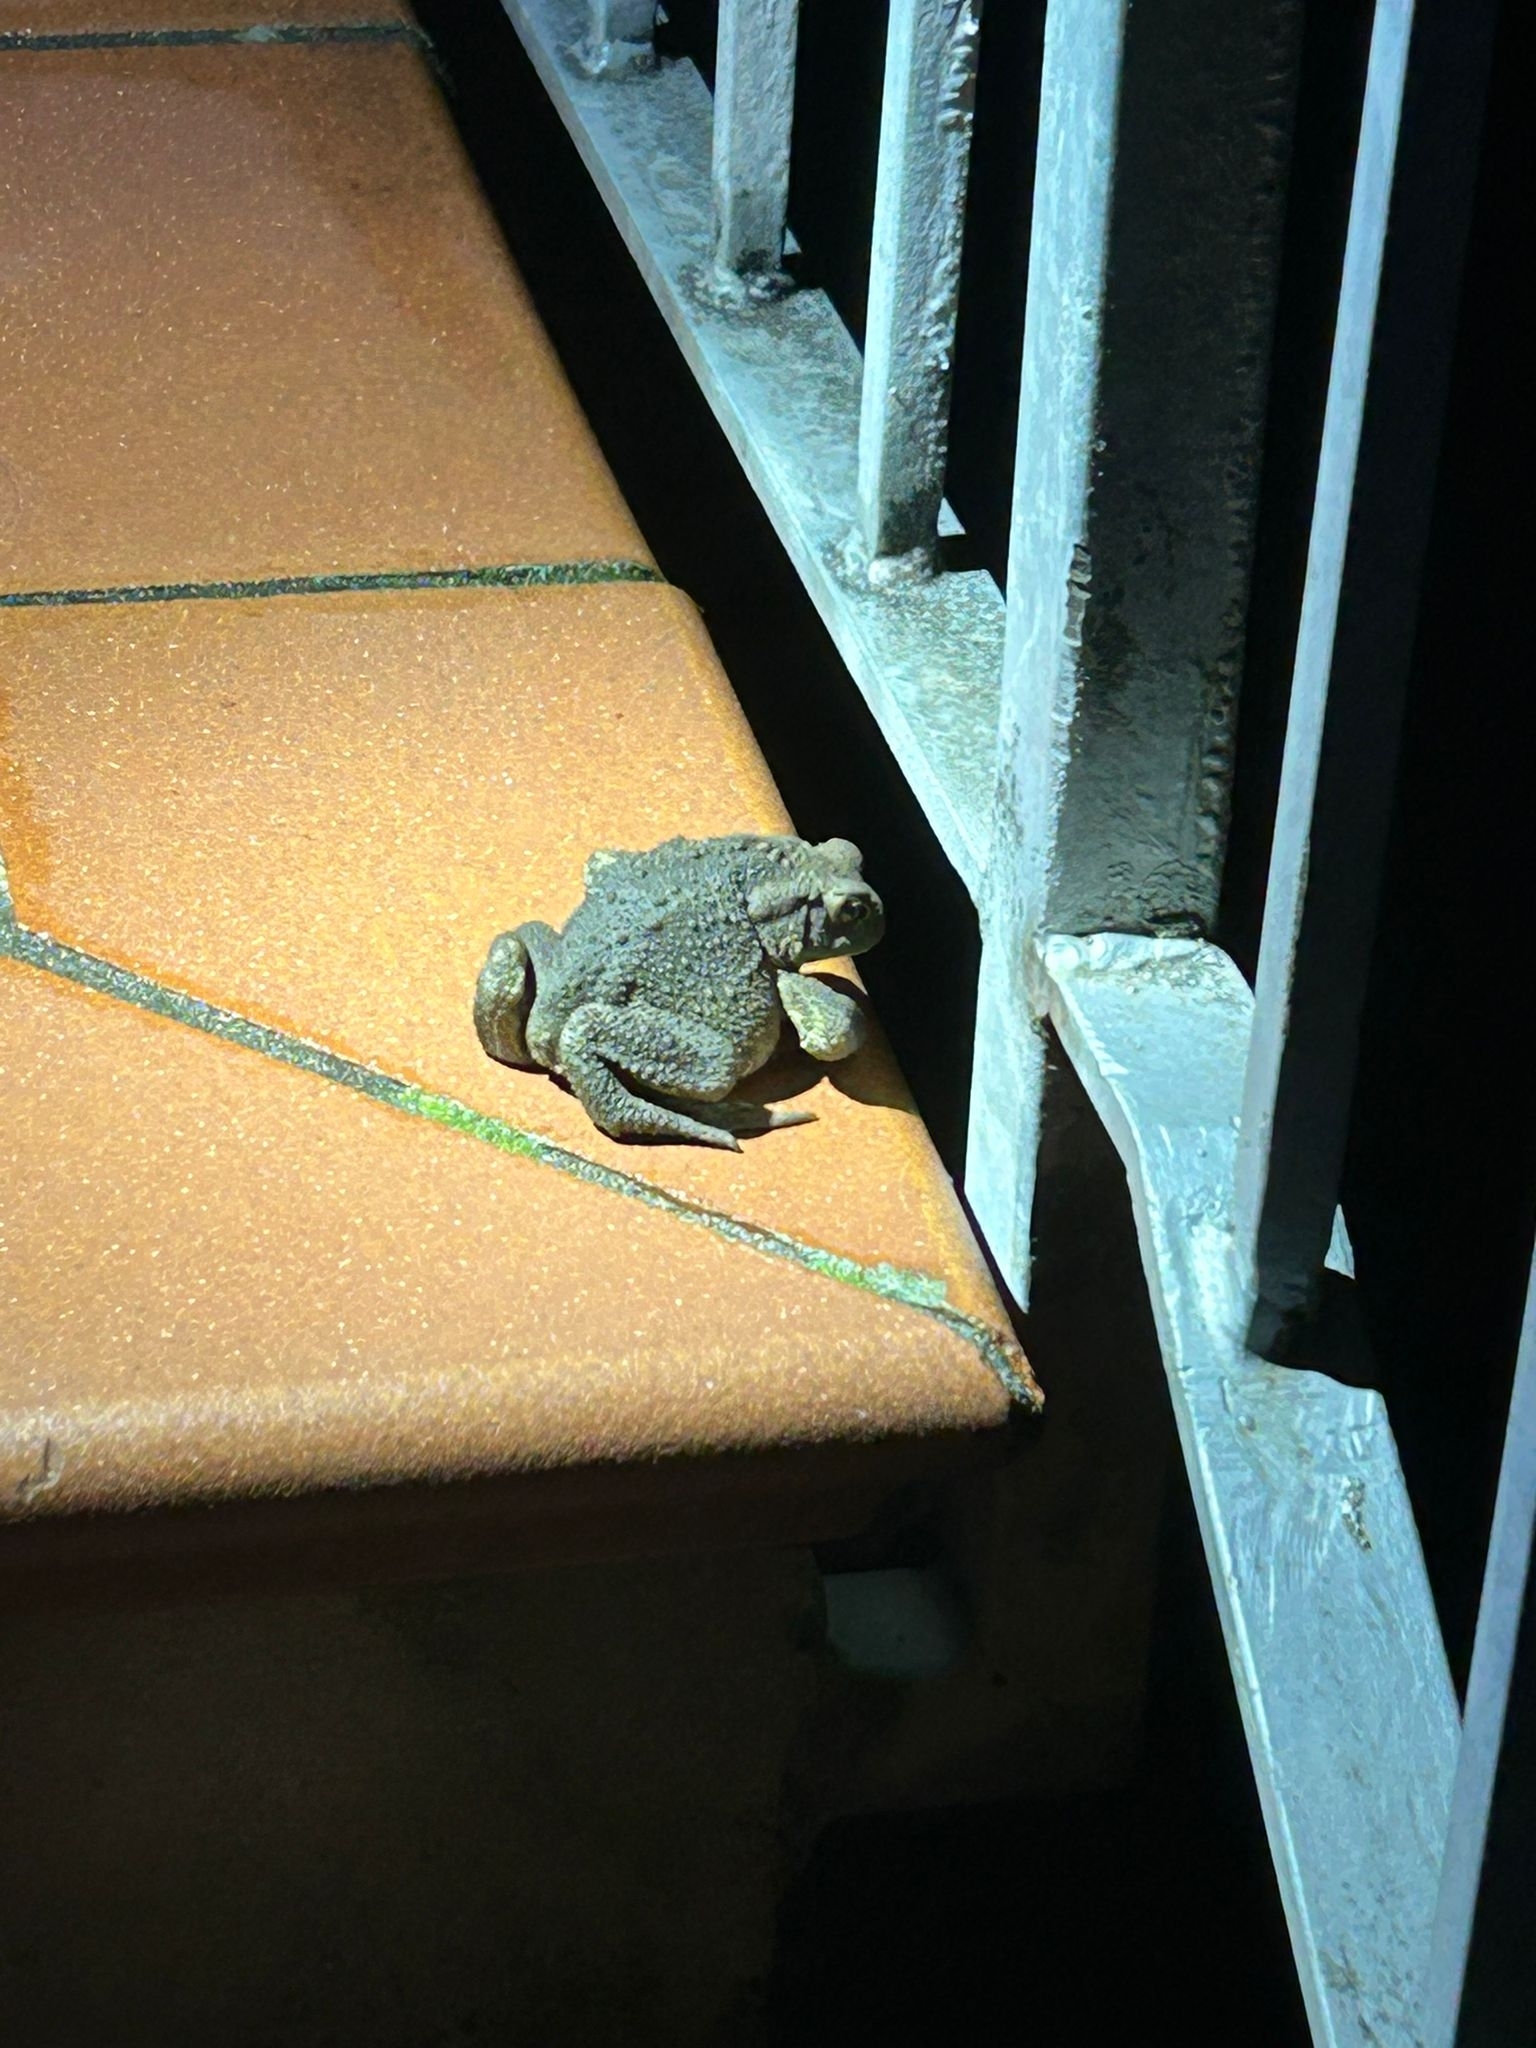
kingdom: Animalia
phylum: Chordata
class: Amphibia
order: Anura
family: Bufonidae
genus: Bufo
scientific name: Bufo bufo
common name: Common toad
